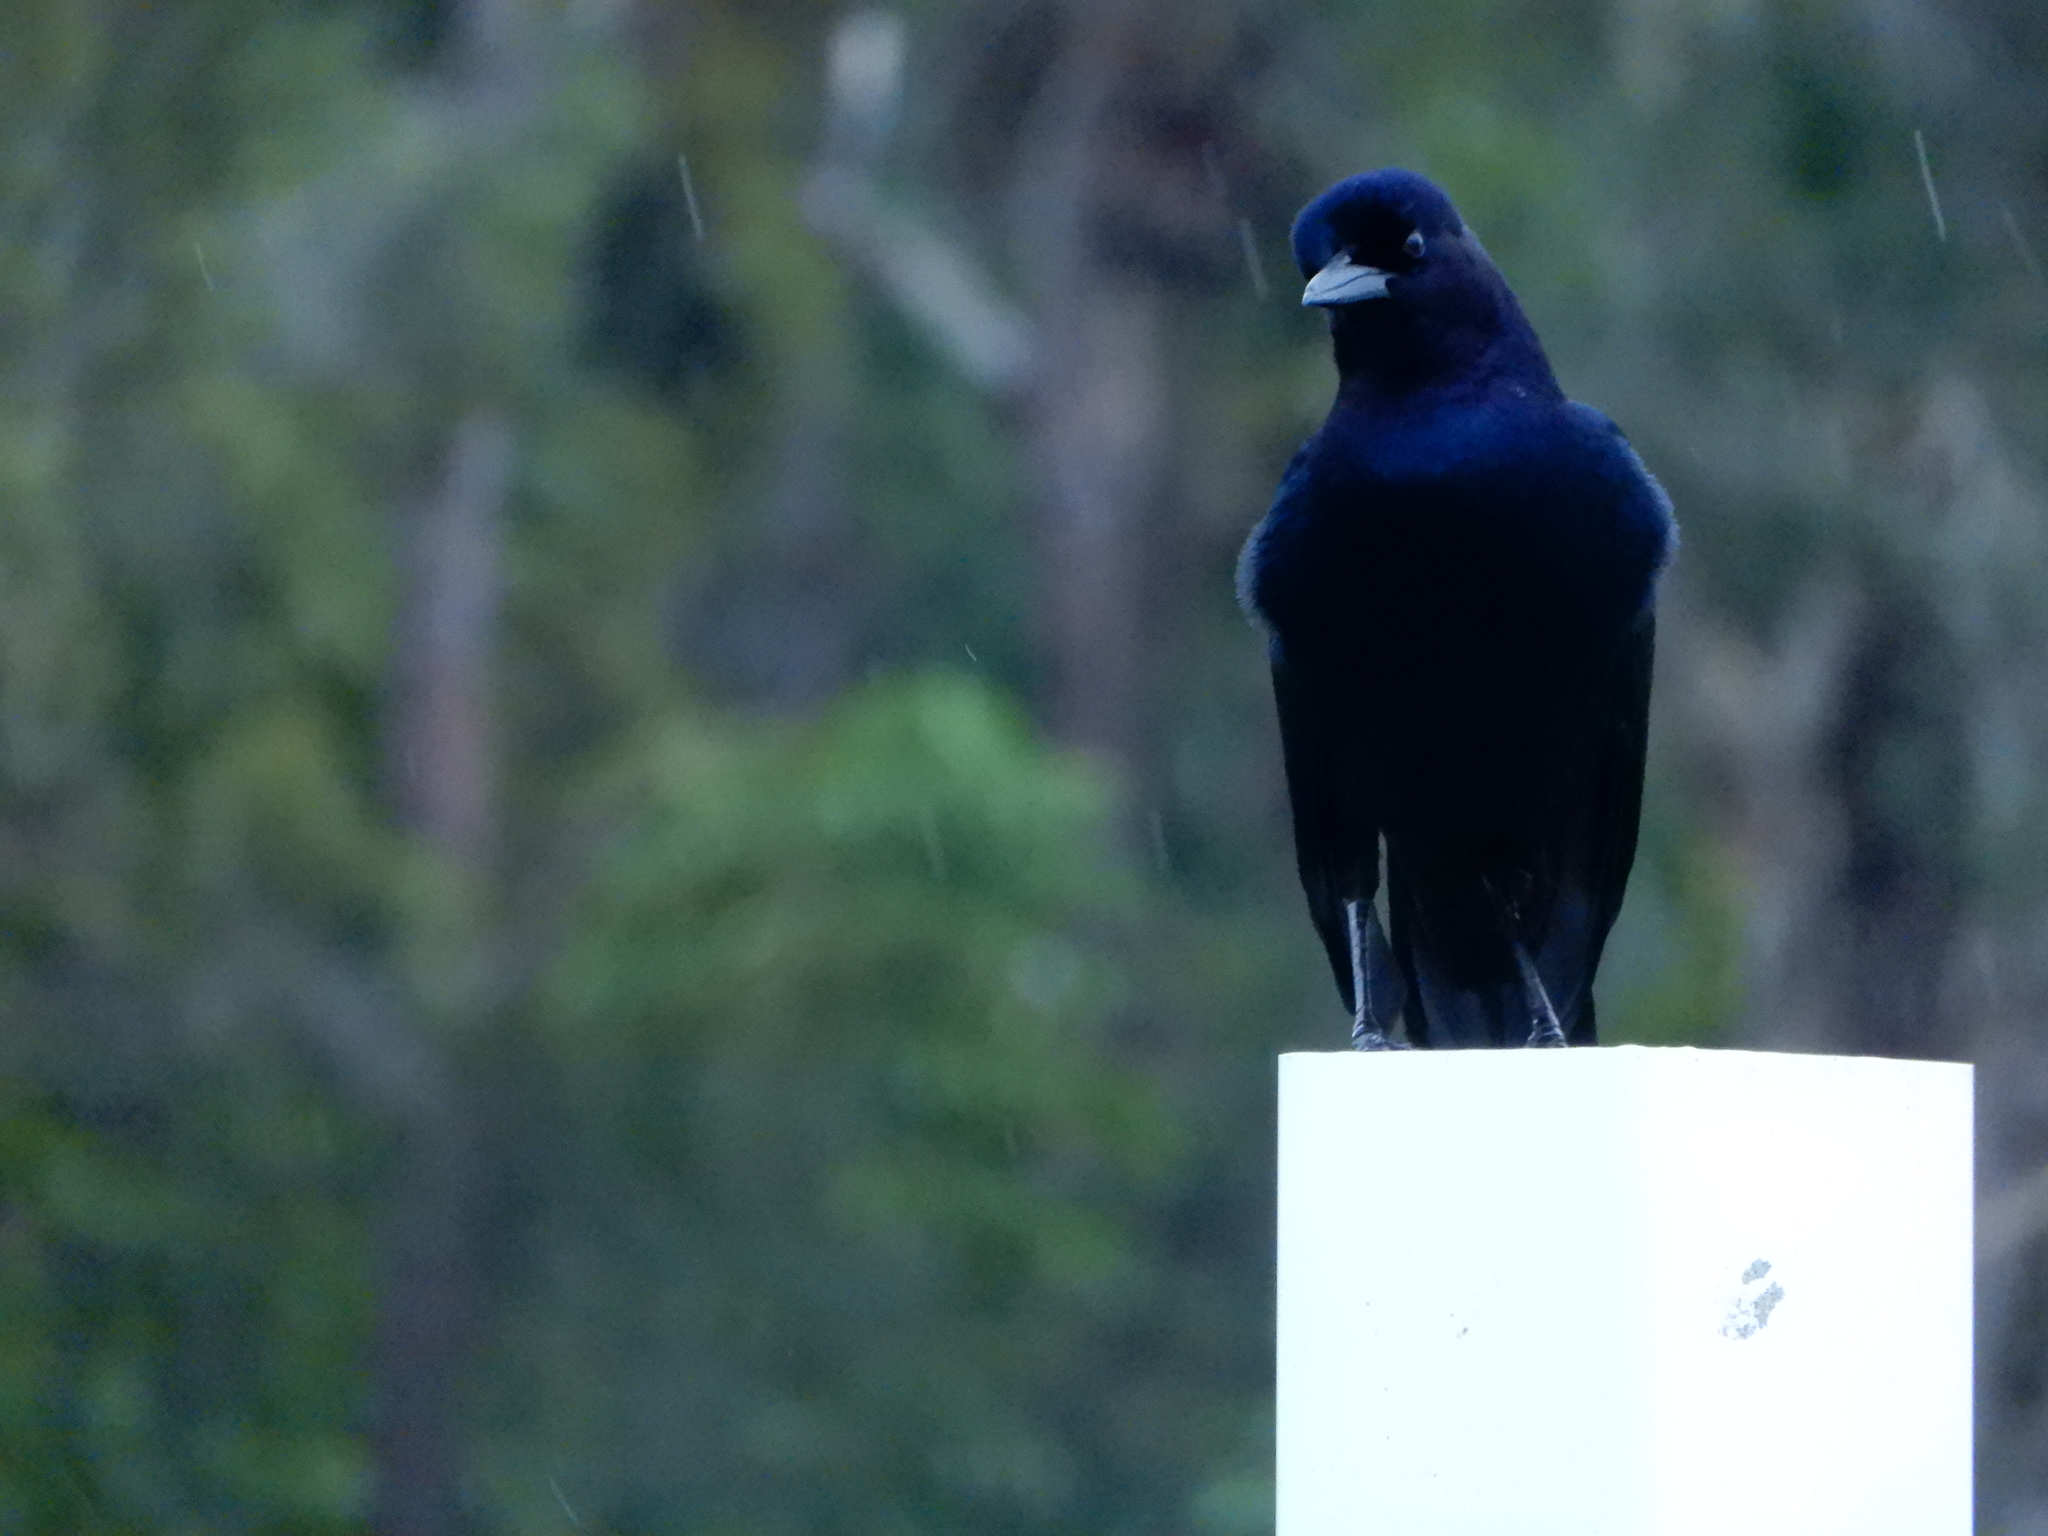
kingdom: Animalia
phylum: Chordata
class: Aves
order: Passeriformes
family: Icteridae
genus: Quiscalus
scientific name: Quiscalus major
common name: Boat-tailed grackle
